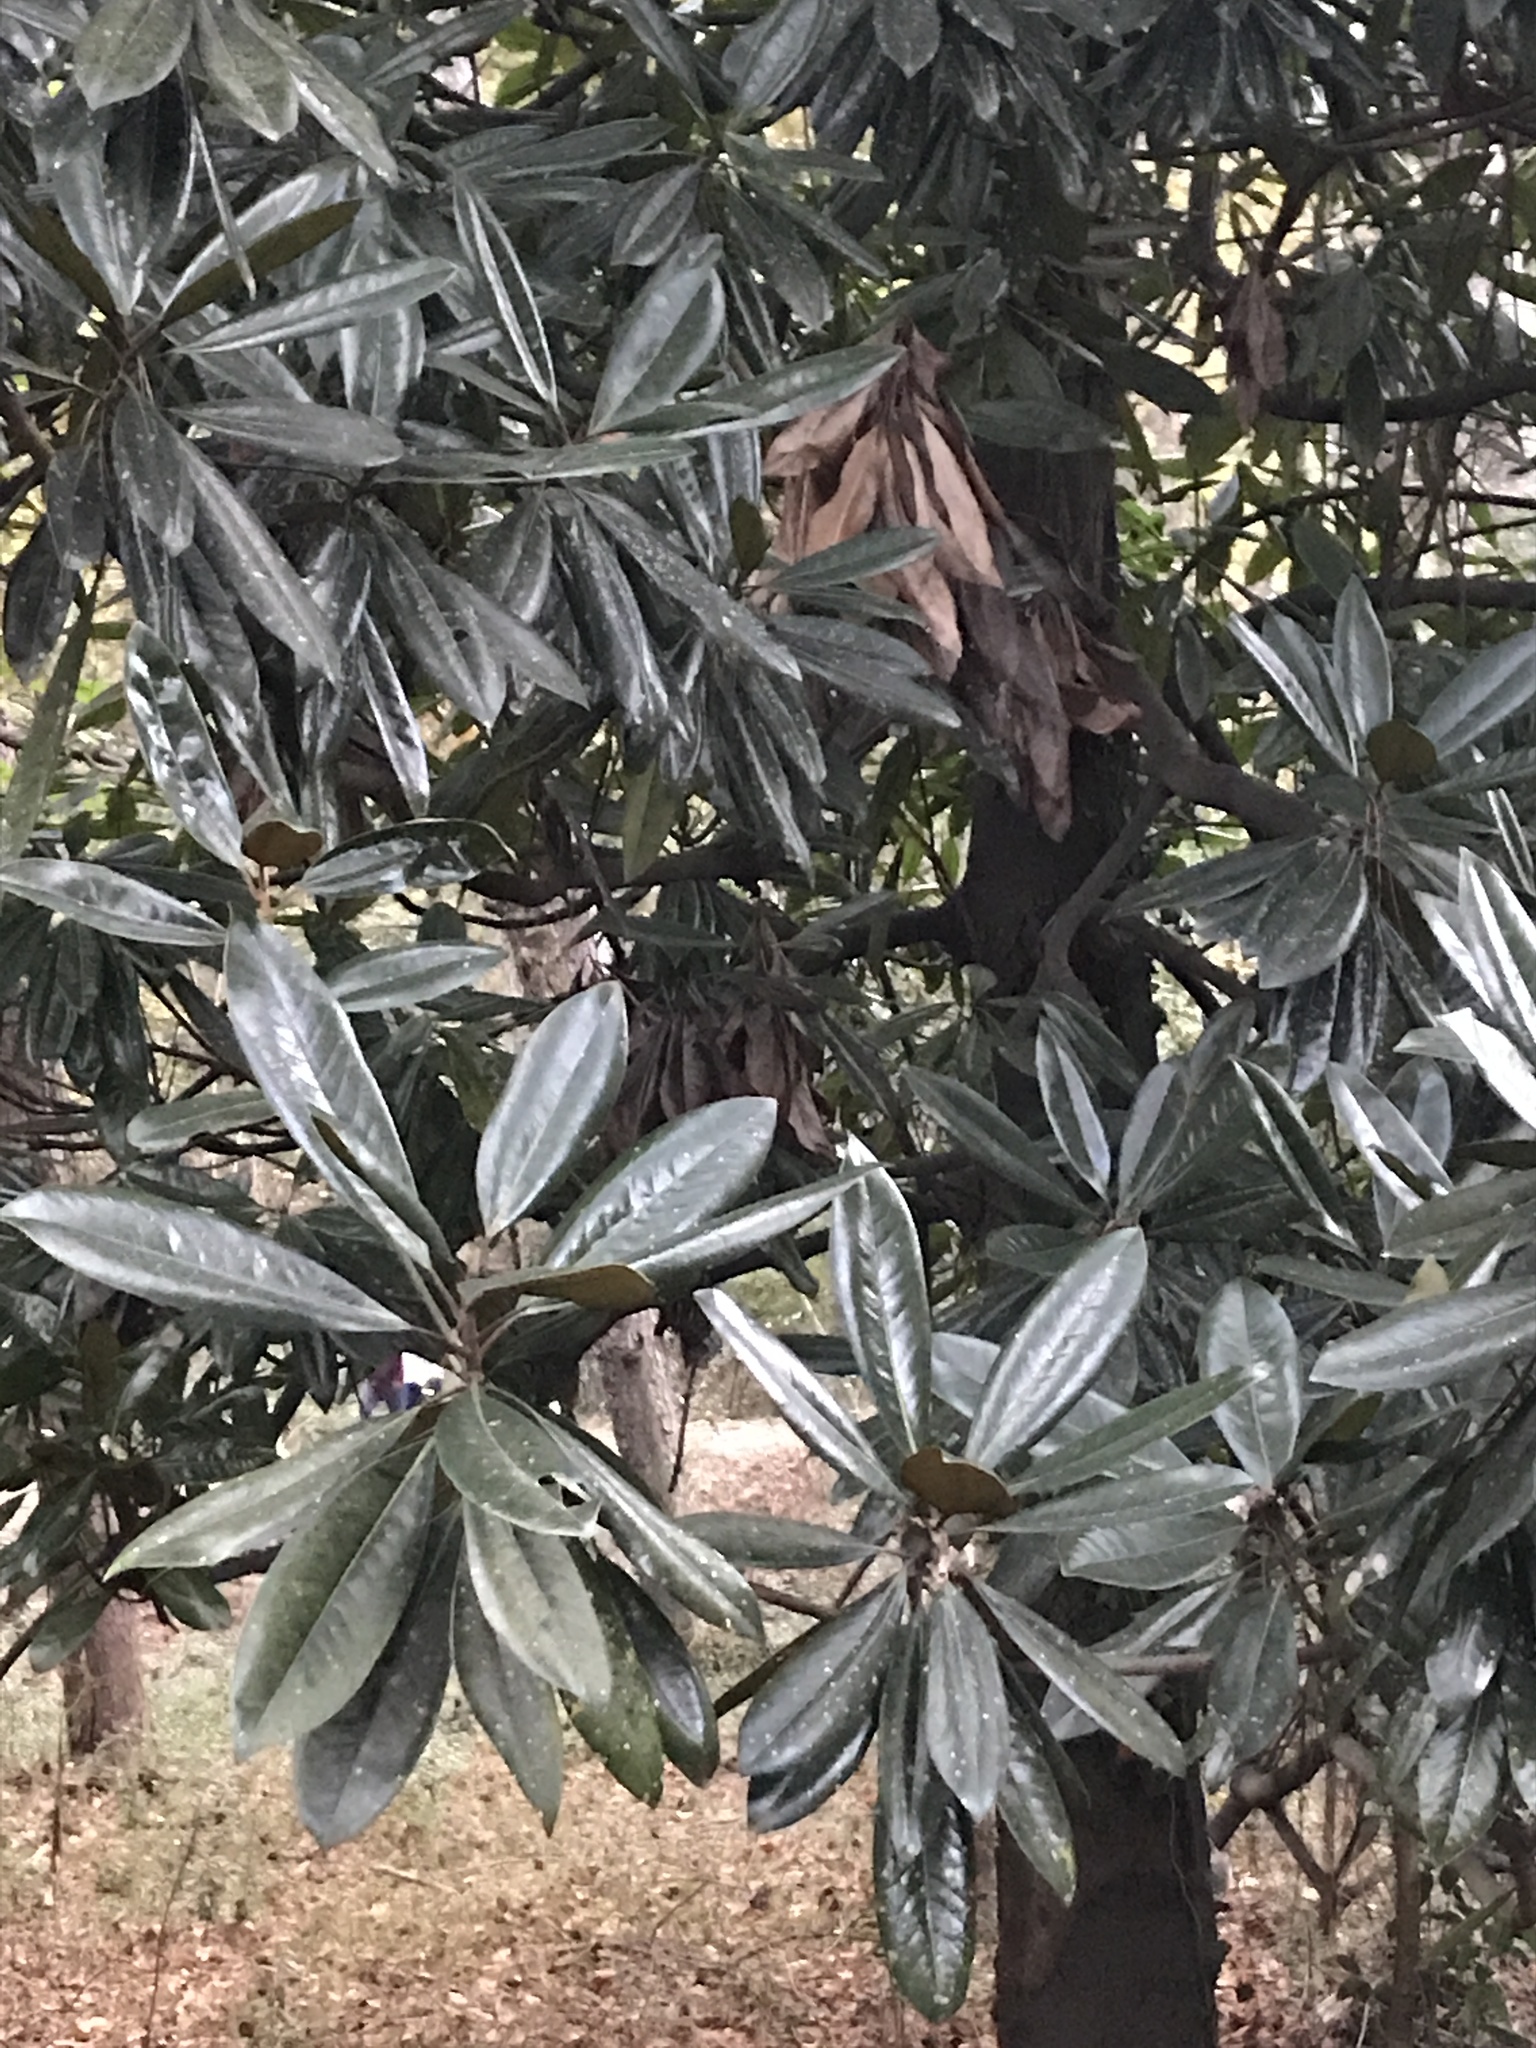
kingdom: Plantae
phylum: Tracheophyta
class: Magnoliopsida
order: Magnoliales
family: Magnoliaceae
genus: Magnolia
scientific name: Magnolia grandiflora
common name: Southern magnolia
